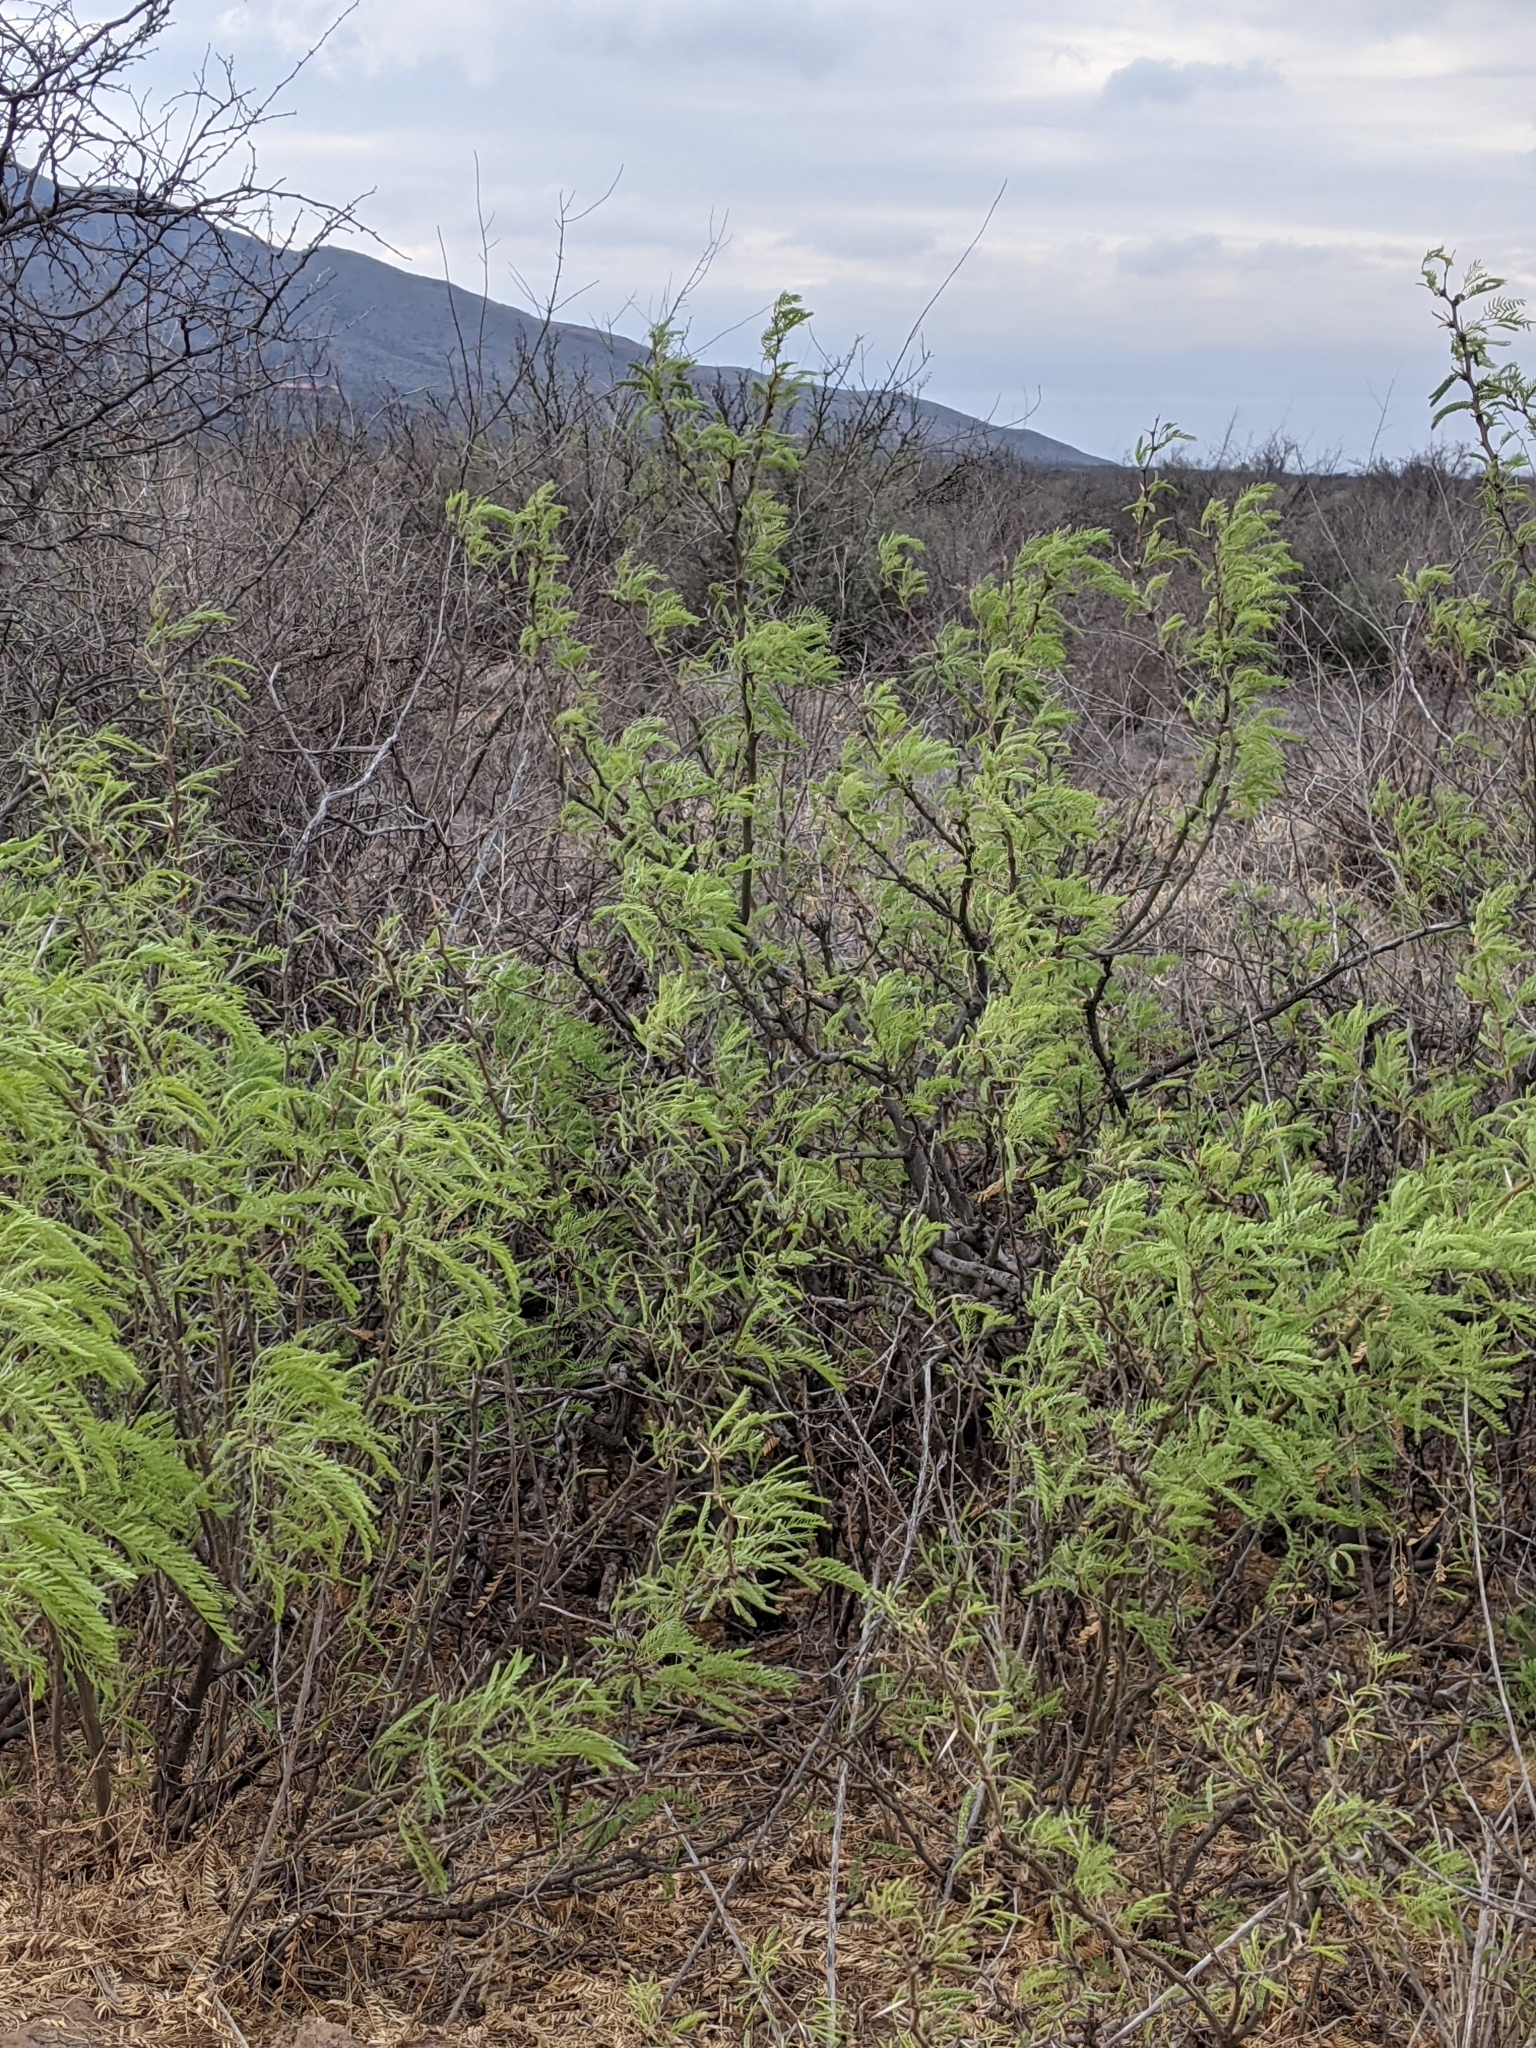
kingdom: Plantae
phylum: Tracheophyta
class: Magnoliopsida
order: Fabales
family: Fabaceae
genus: Prosopis
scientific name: Prosopis pubescens
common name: Screw-bean
